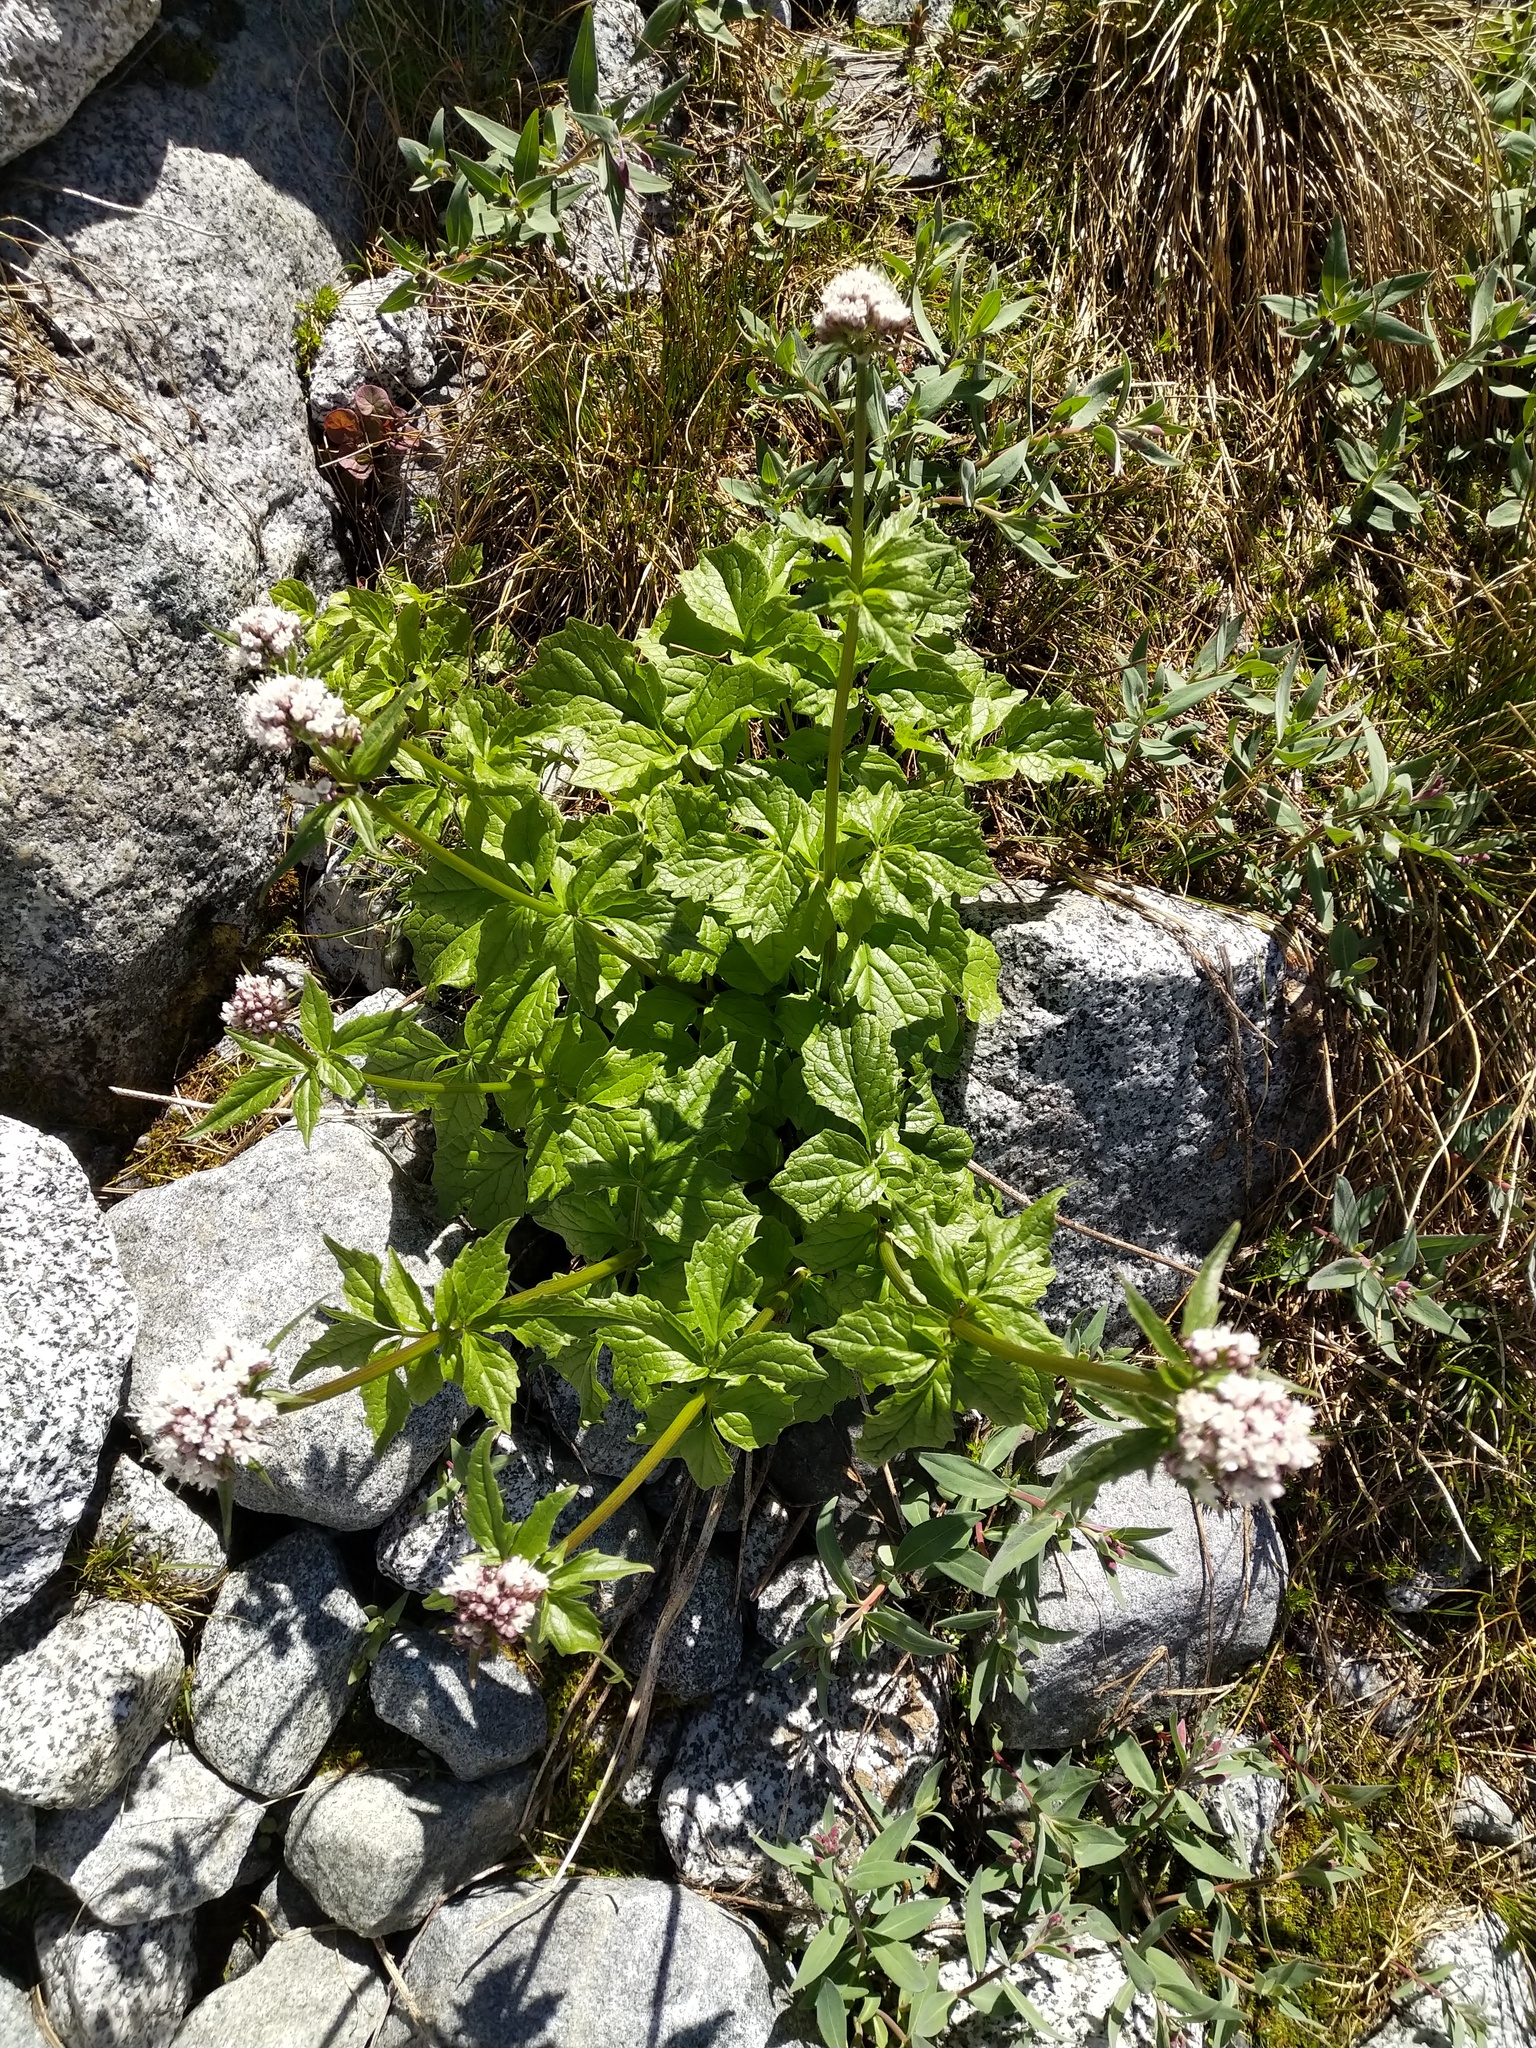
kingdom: Plantae
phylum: Tracheophyta
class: Magnoliopsida
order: Dipsacales
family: Caprifoliaceae
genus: Valeriana
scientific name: Valeriana sitchensis
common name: Pacific valerian
